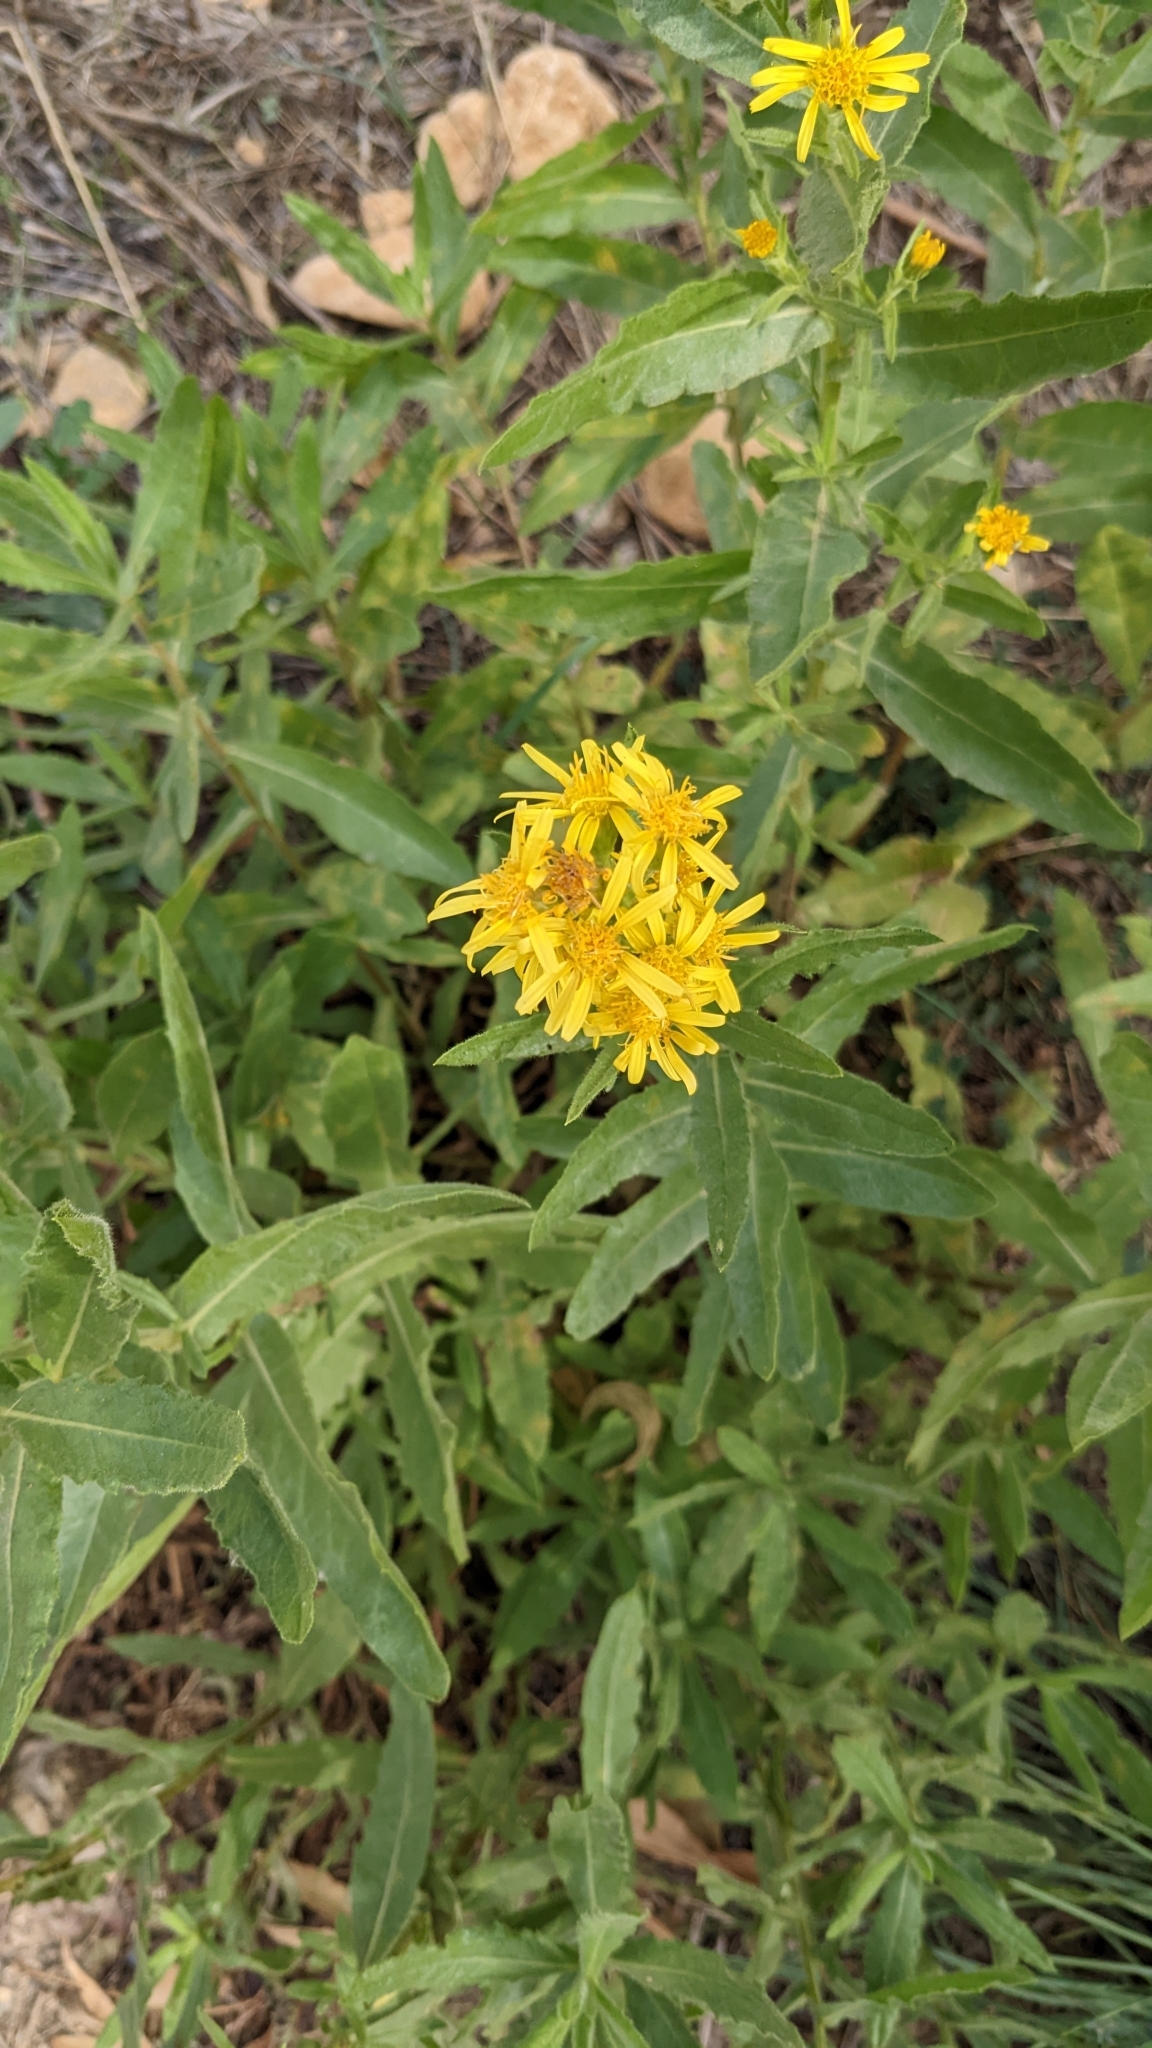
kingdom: Plantae
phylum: Tracheophyta
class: Magnoliopsida
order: Asterales
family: Asteraceae
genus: Dittrichia
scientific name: Dittrichia viscosa
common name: Woody fleabane
